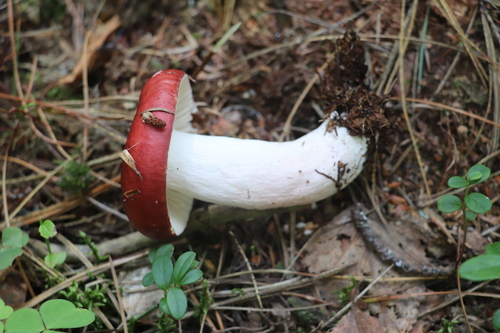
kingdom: Fungi
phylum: Basidiomycota
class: Agaricomycetes
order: Russulales
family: Russulaceae
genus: Russula
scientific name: Russula
